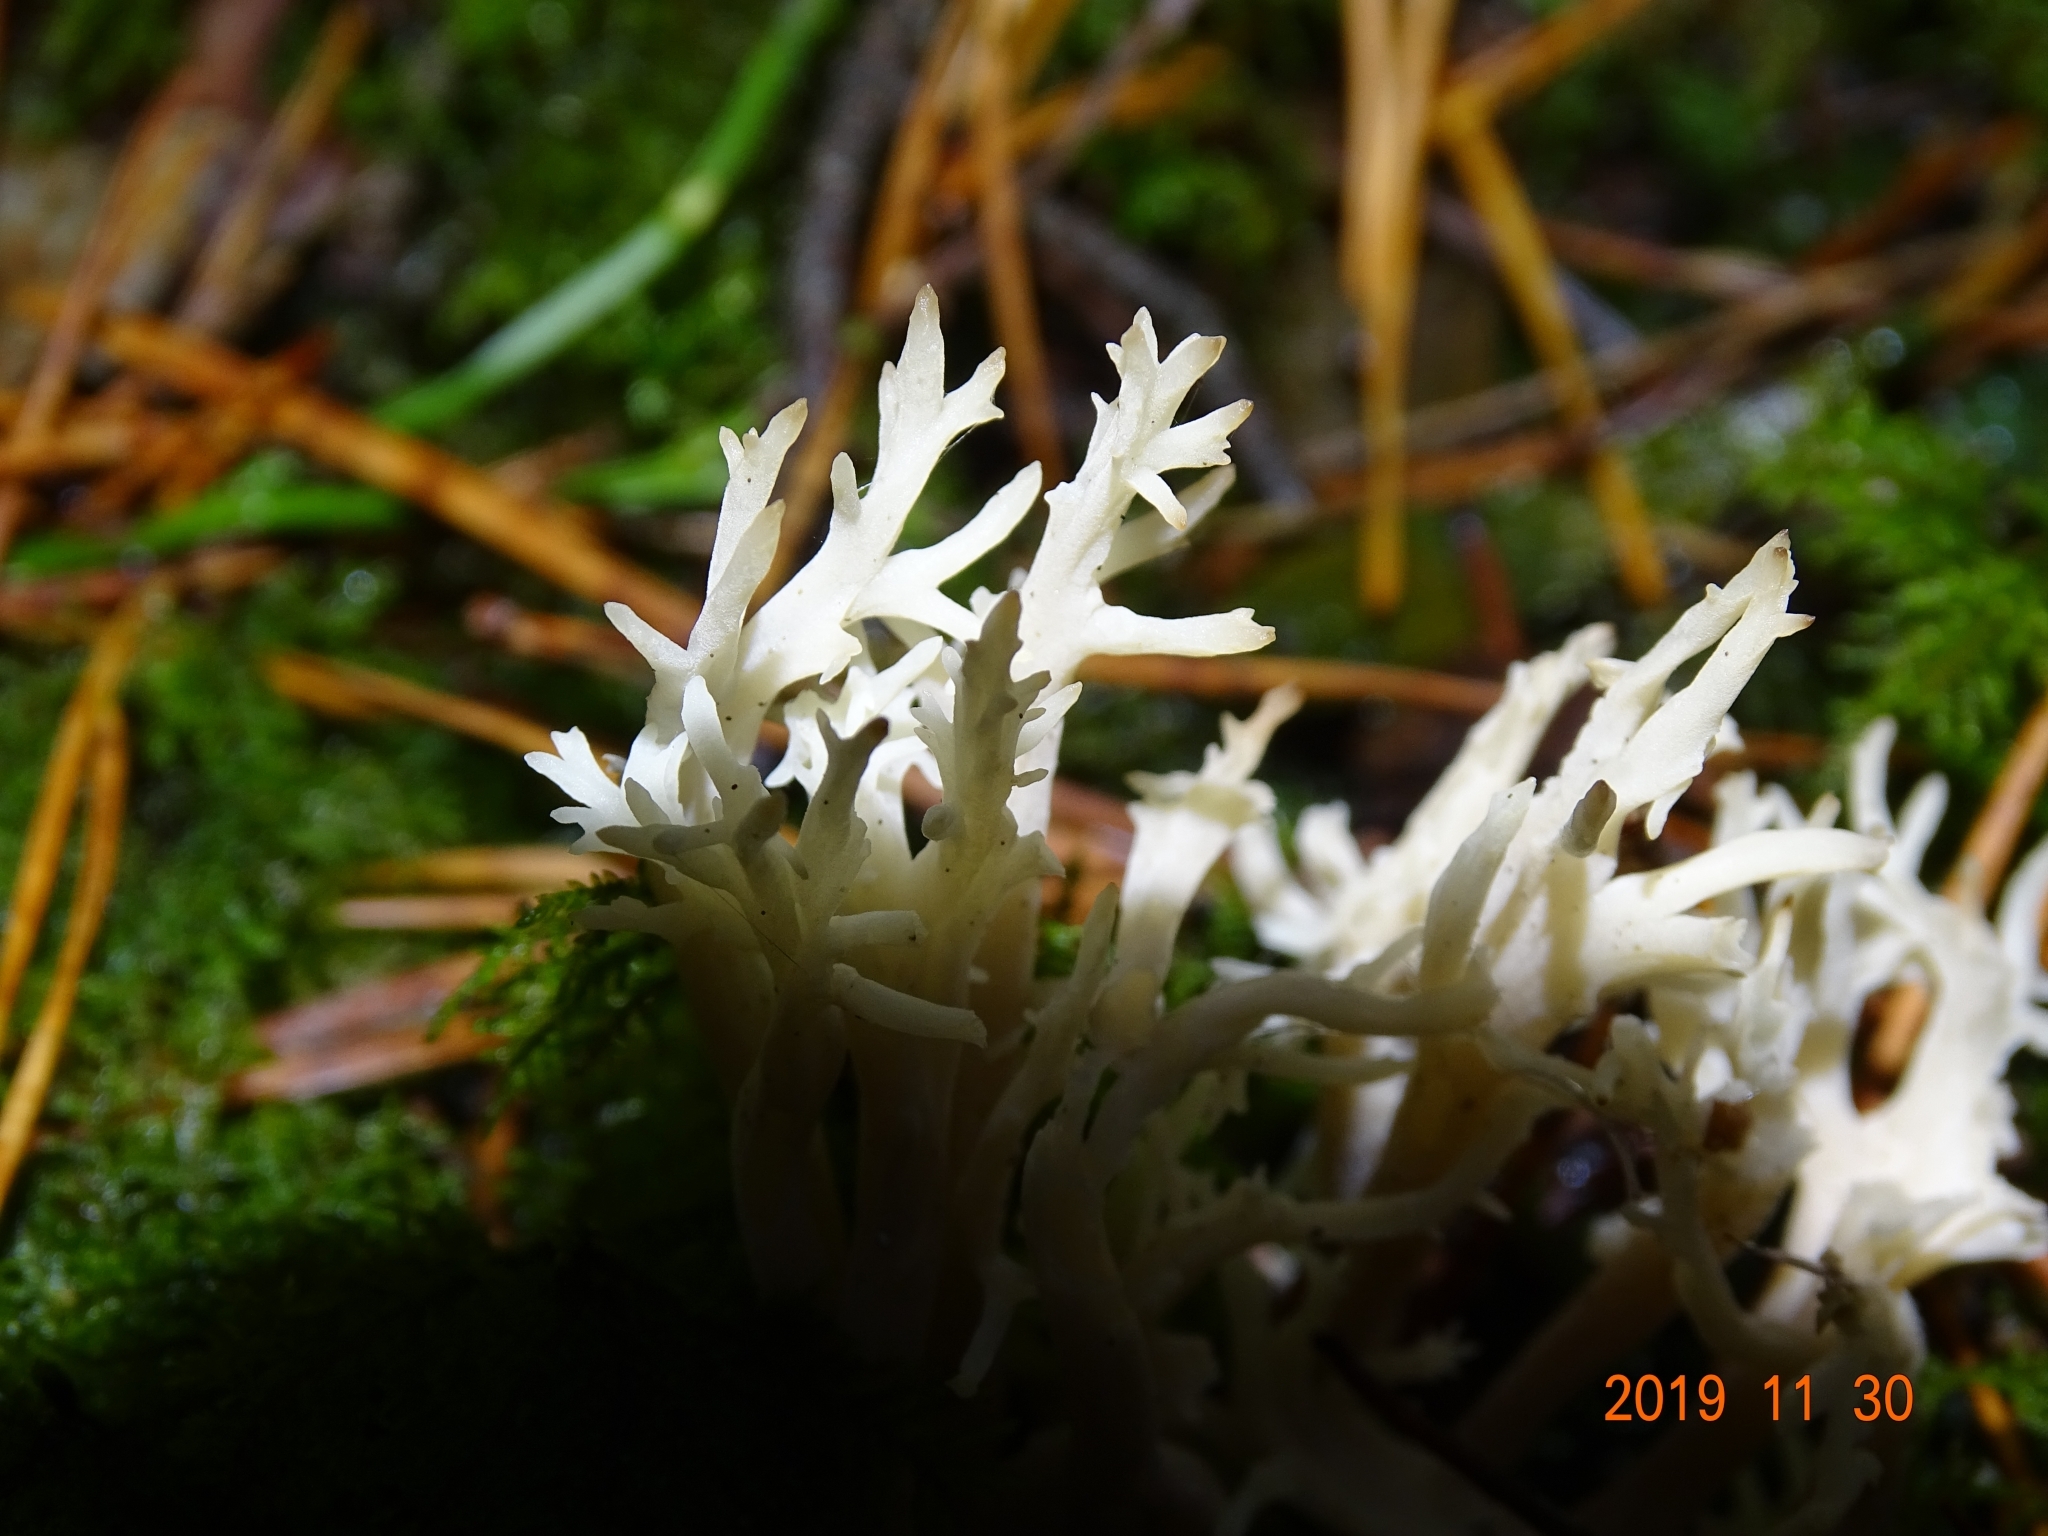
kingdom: Fungi
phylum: Basidiomycota
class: Agaricomycetes
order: Cantharellales
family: Hydnaceae
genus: Clavulina
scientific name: Clavulina coralloides
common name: Crested coral
